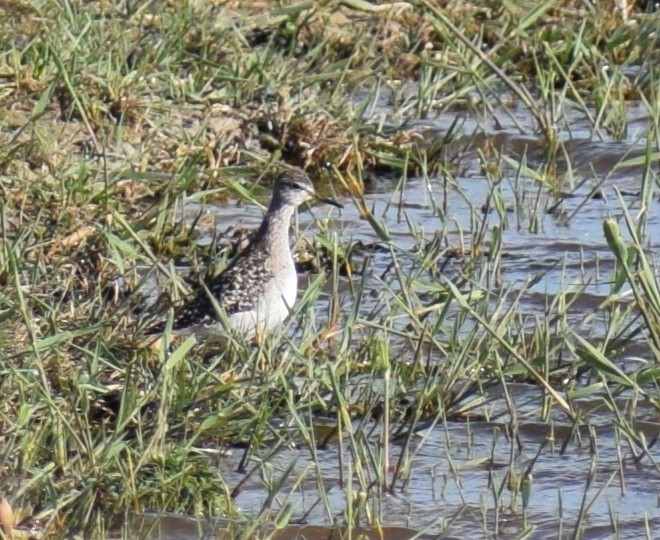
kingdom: Animalia
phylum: Chordata
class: Aves
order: Charadriiformes
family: Scolopacidae
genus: Tringa
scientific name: Tringa glareola
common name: Wood sandpiper
